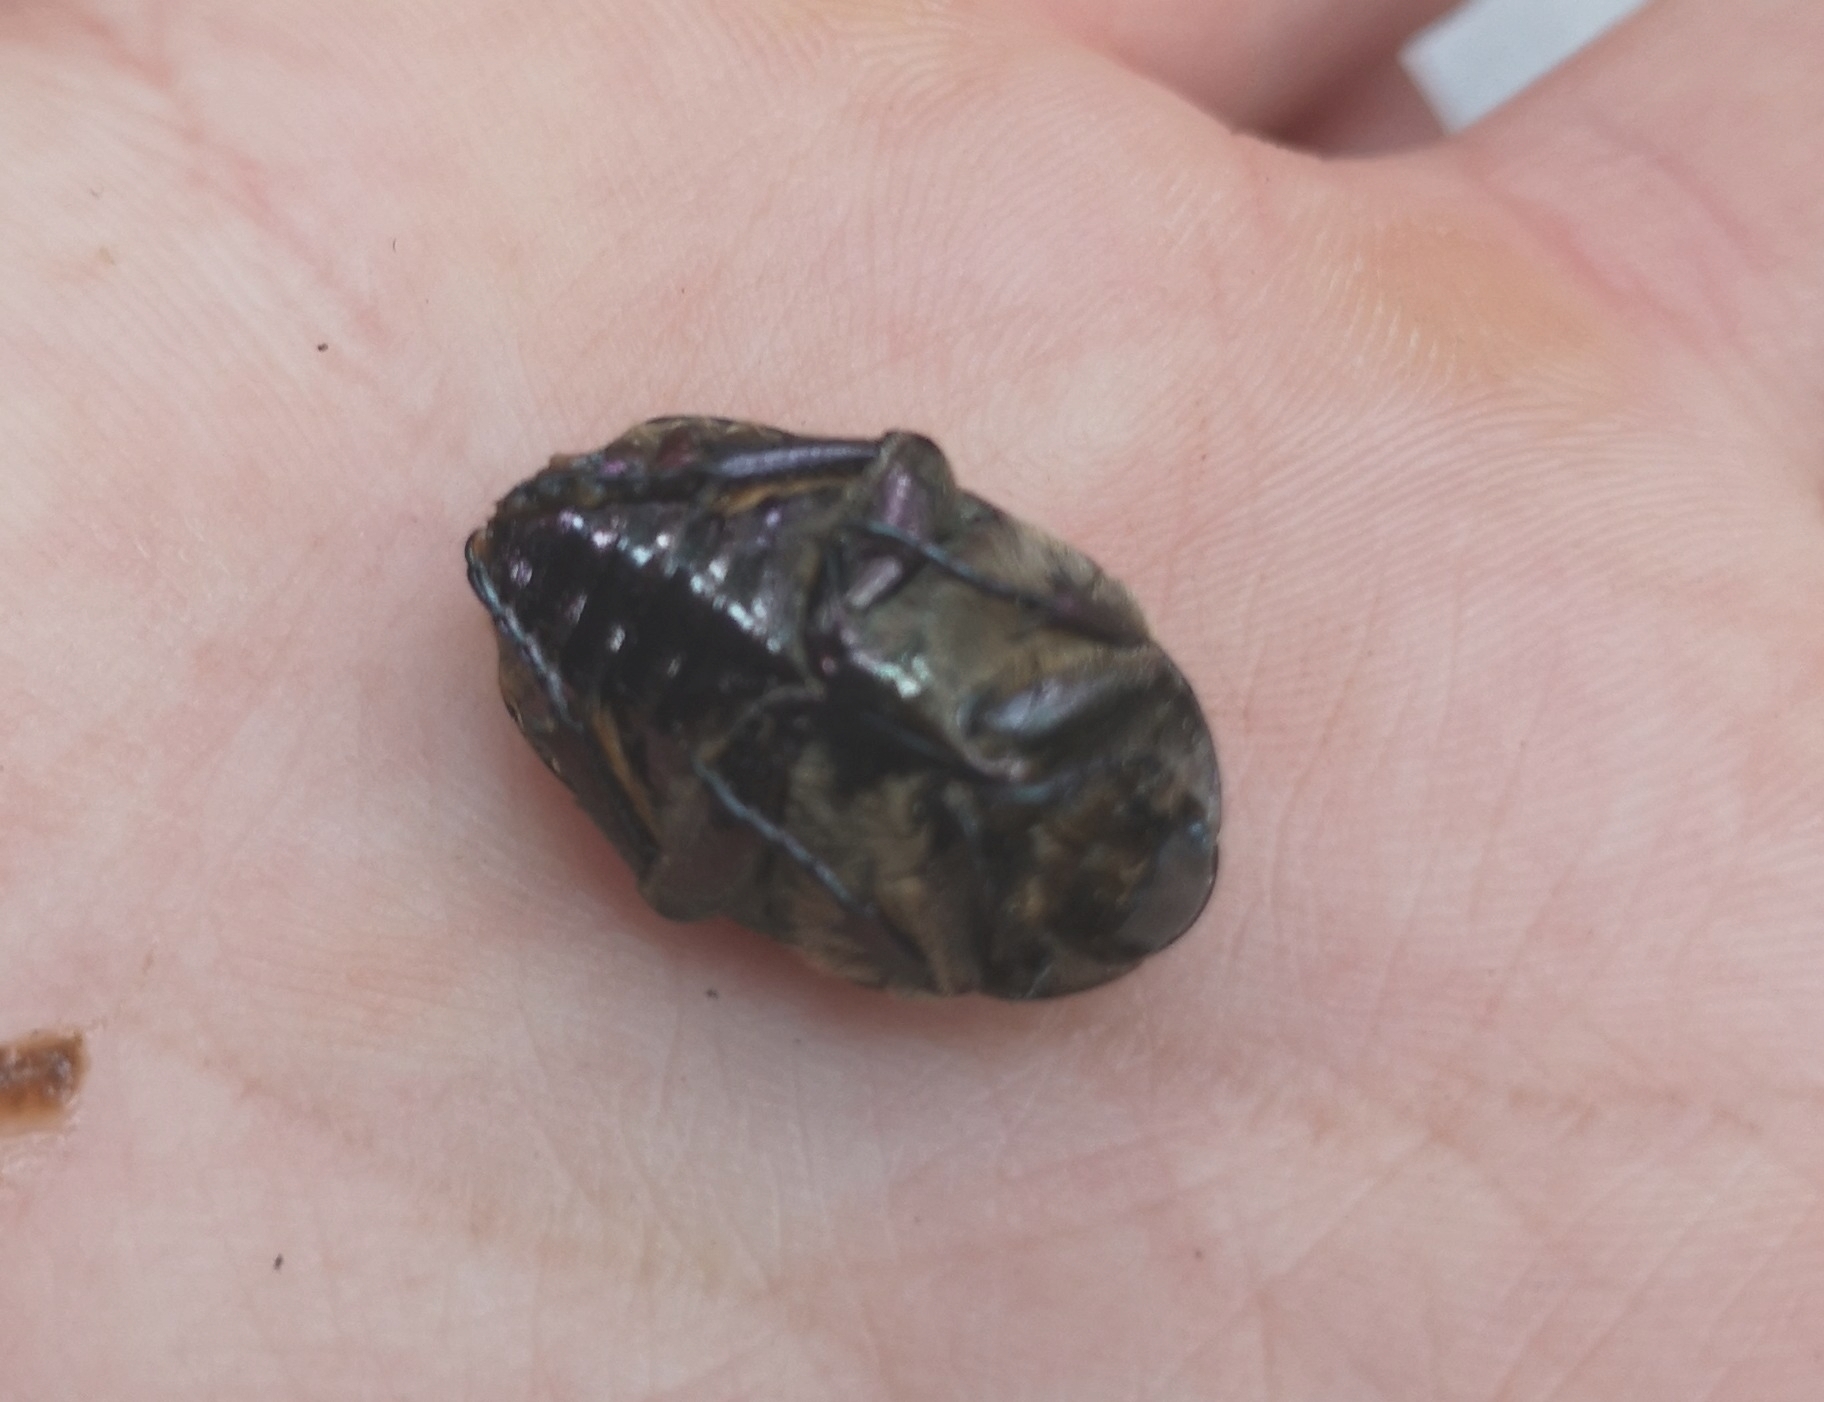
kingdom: Animalia
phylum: Arthropoda
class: Insecta
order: Coleoptera
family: Scarabaeidae
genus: Protaetia
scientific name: Protaetia cuprea
